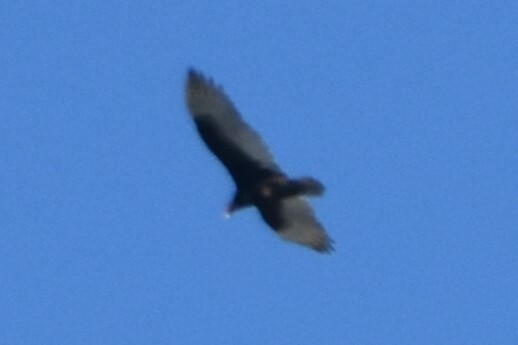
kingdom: Animalia
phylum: Chordata
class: Aves
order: Accipitriformes
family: Cathartidae
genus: Cathartes
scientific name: Cathartes aura
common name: Turkey vulture
